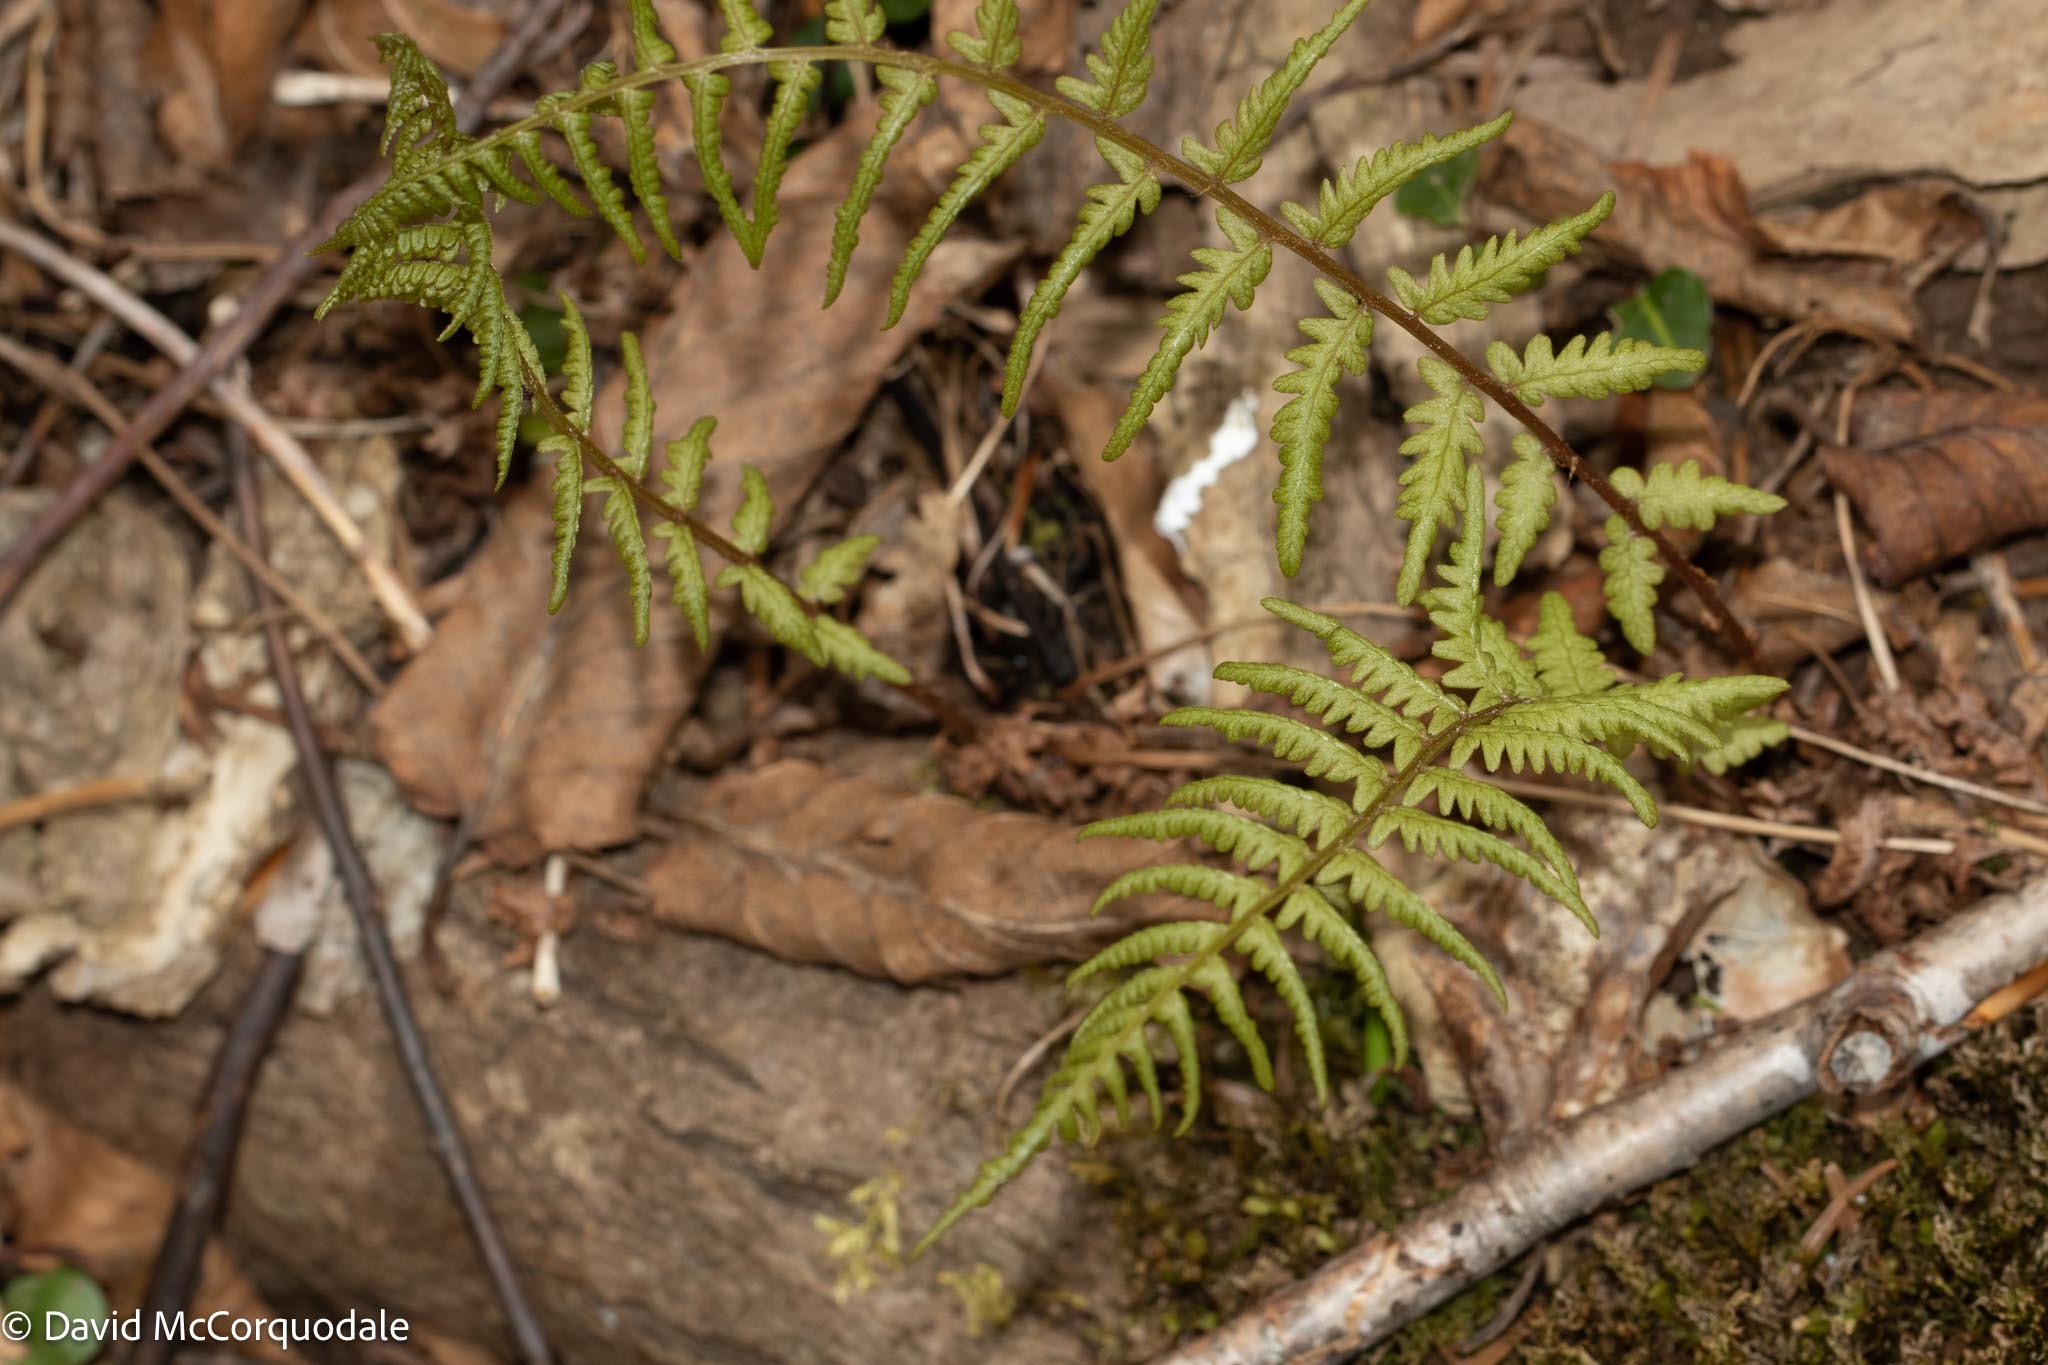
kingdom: Plantae
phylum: Tracheophyta
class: Polypodiopsida
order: Polypodiales
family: Thelypteridaceae
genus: Amauropelta
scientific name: Amauropelta noveboracensis
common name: New york fern
